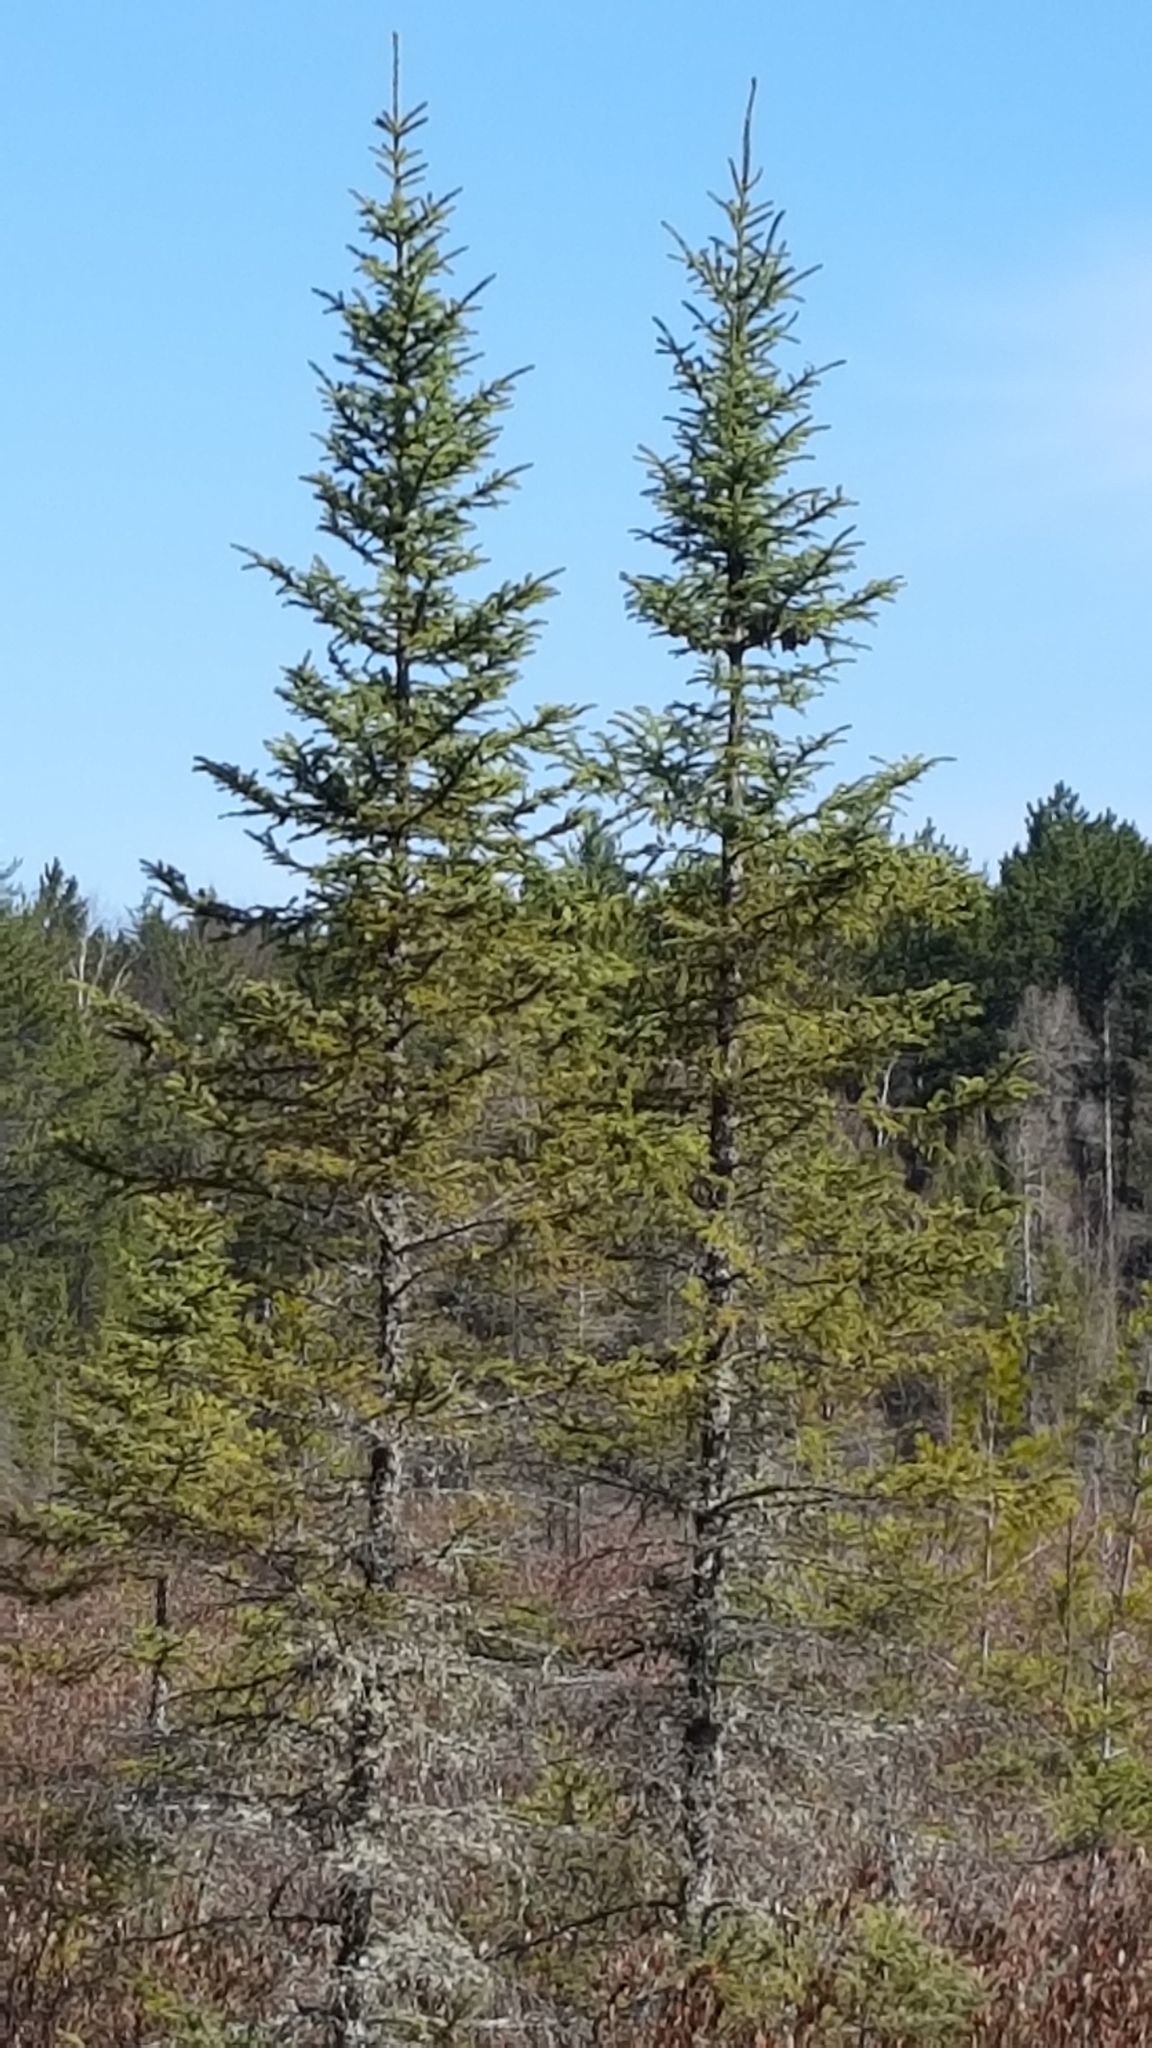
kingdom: Plantae
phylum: Tracheophyta
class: Pinopsida
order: Pinales
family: Pinaceae
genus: Picea
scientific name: Picea mariana
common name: Black spruce
